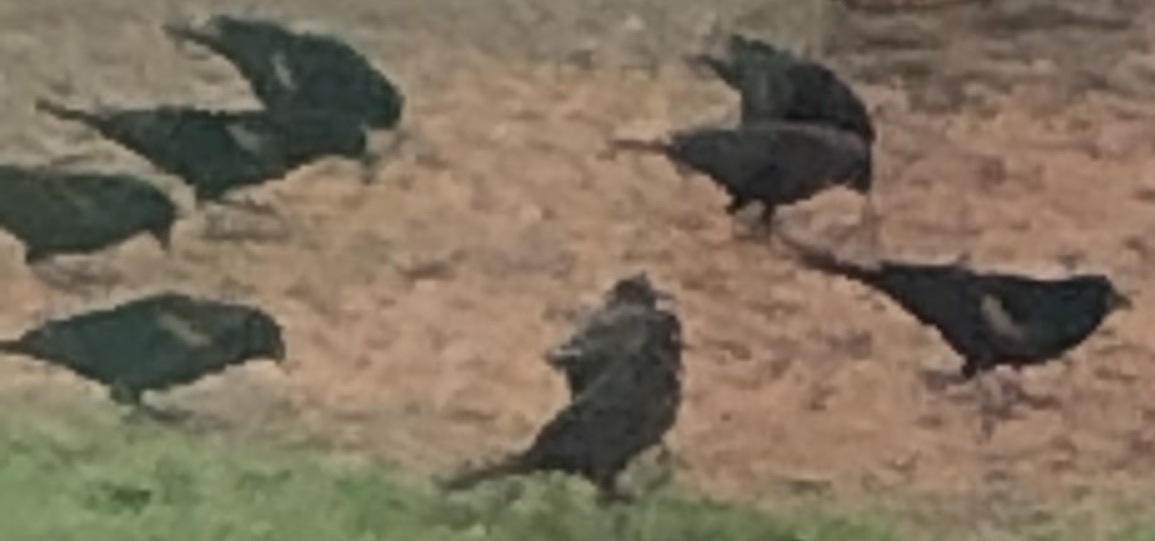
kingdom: Animalia
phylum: Chordata
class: Aves
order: Passeriformes
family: Icteridae
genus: Agelaius
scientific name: Agelaius phoeniceus
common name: Red-winged blackbird
